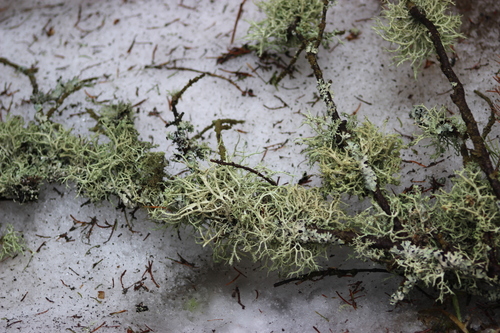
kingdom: Fungi
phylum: Ascomycota
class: Lecanoromycetes
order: Lecanorales
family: Parmeliaceae
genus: Evernia
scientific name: Evernia mesomorpha
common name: Boreal oak moss lichen
